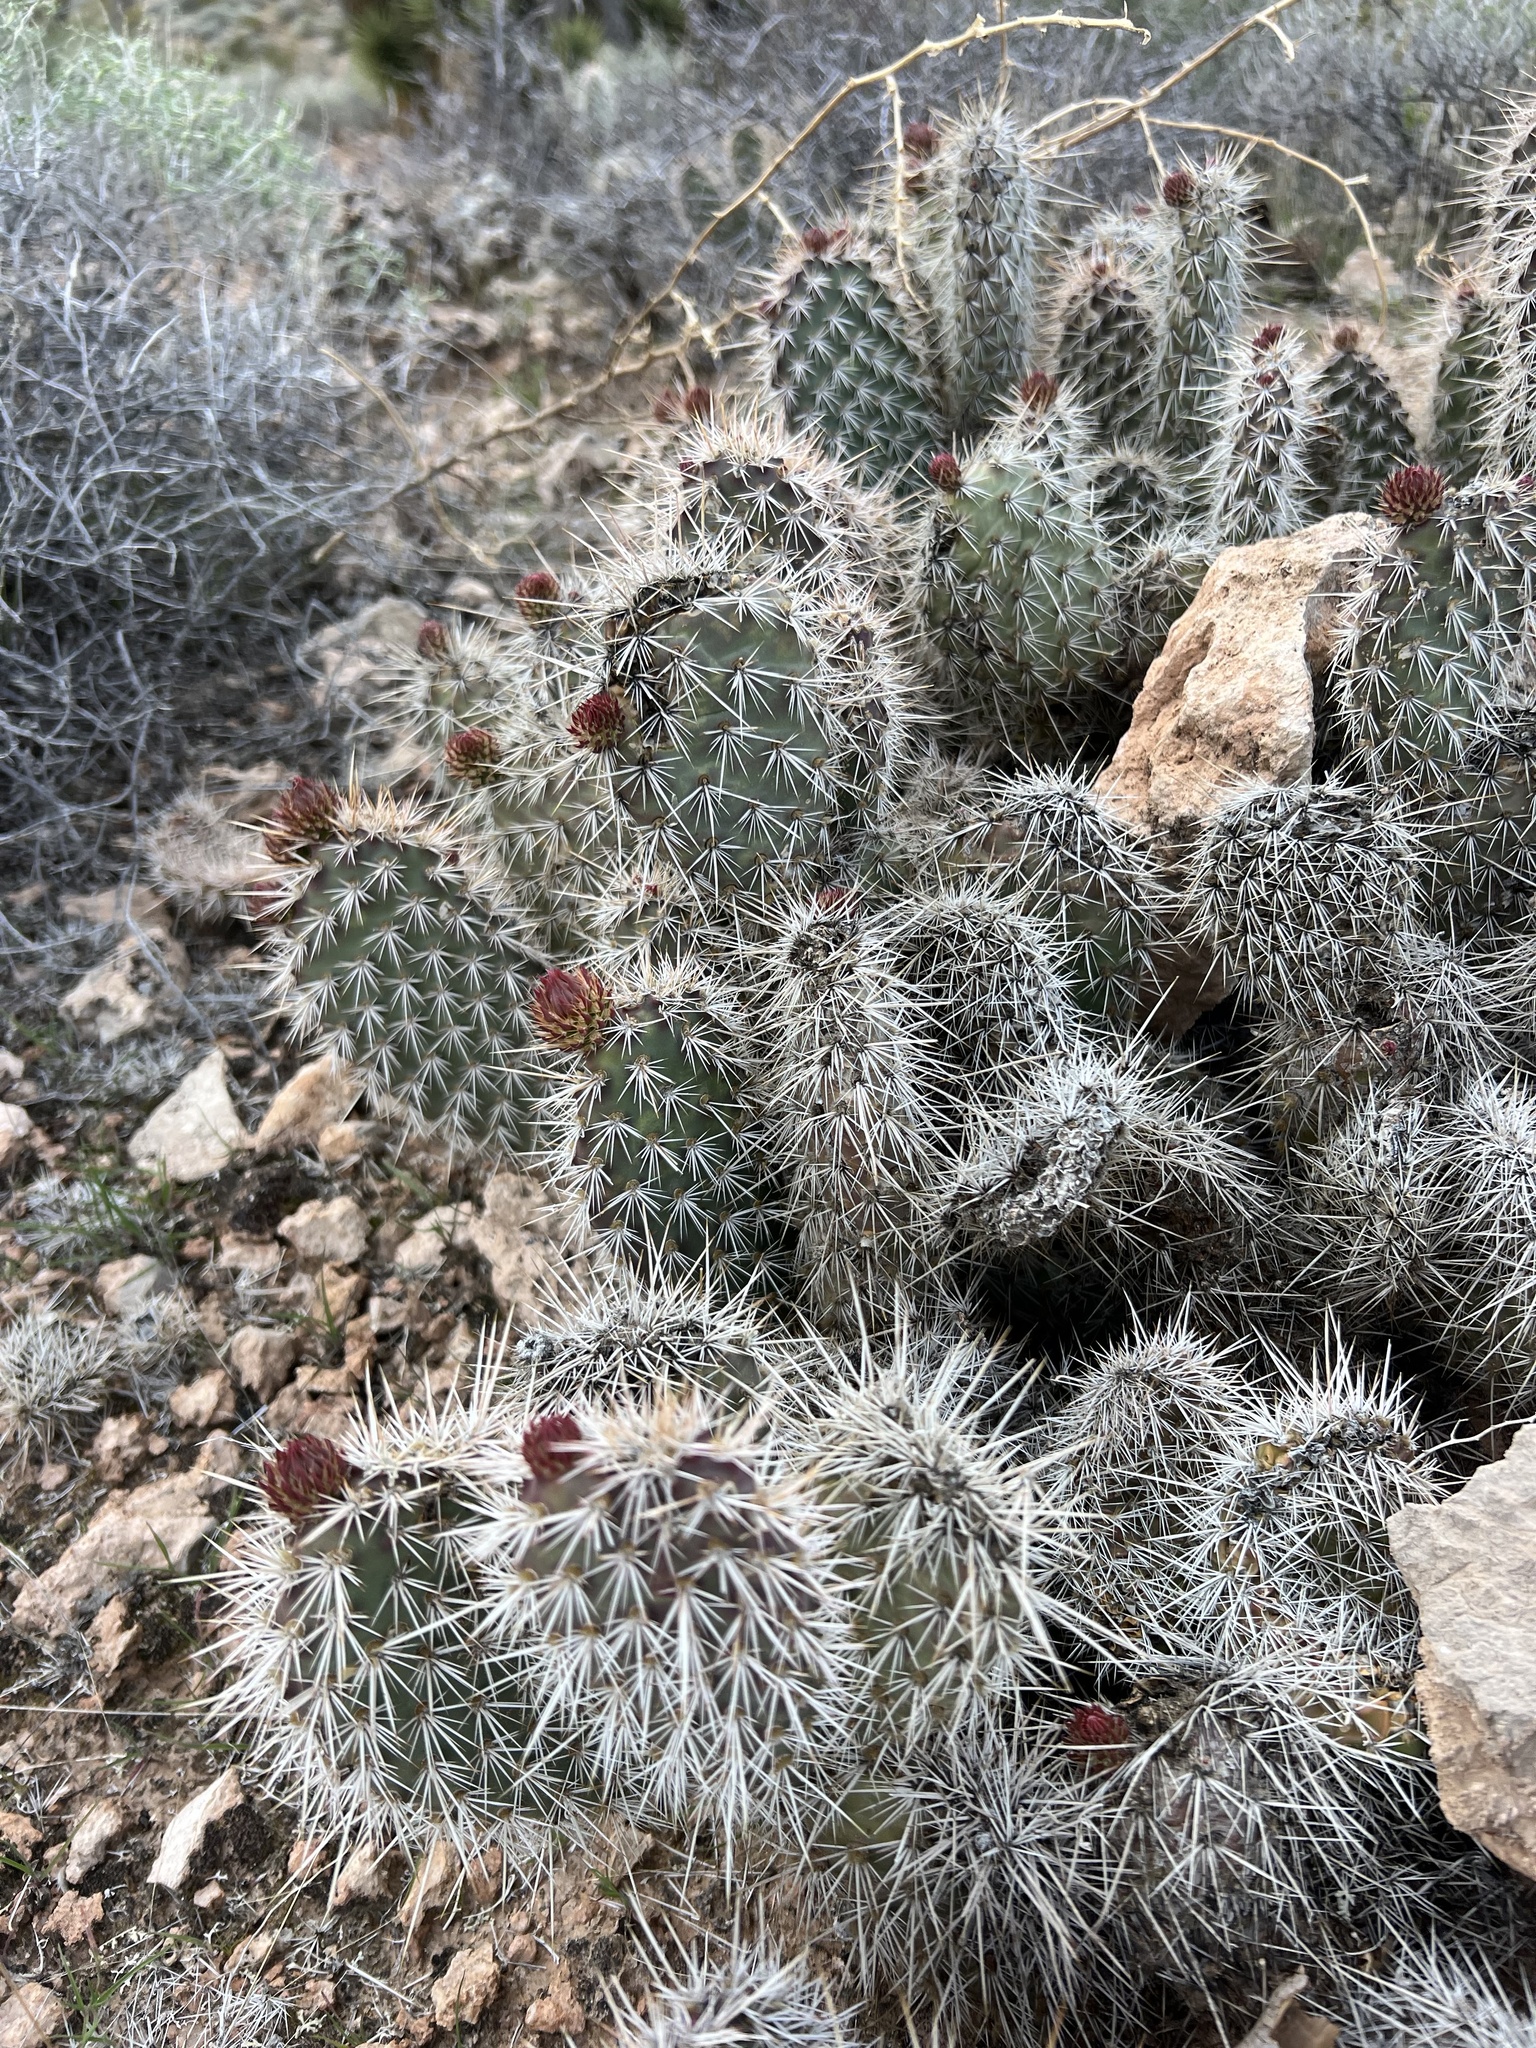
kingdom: Plantae
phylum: Tracheophyta
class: Magnoliopsida
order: Caryophyllales
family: Cactaceae
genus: Opuntia
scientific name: Opuntia polyacantha
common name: Plains prickly-pear
